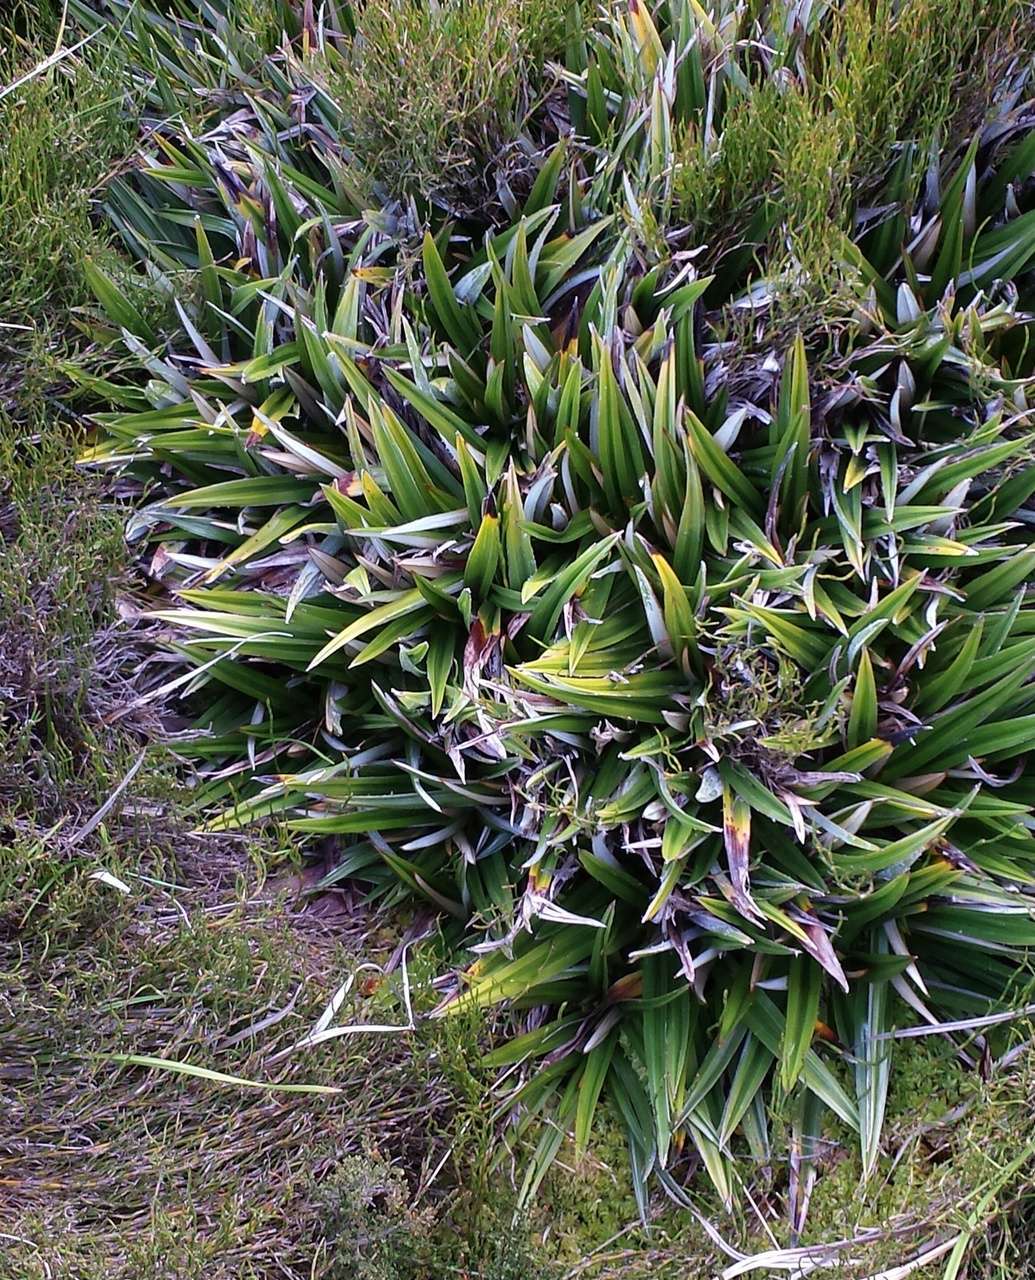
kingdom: Plantae
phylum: Tracheophyta
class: Liliopsida
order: Asparagales
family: Asteliaceae
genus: Astelia
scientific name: Astelia alpina
